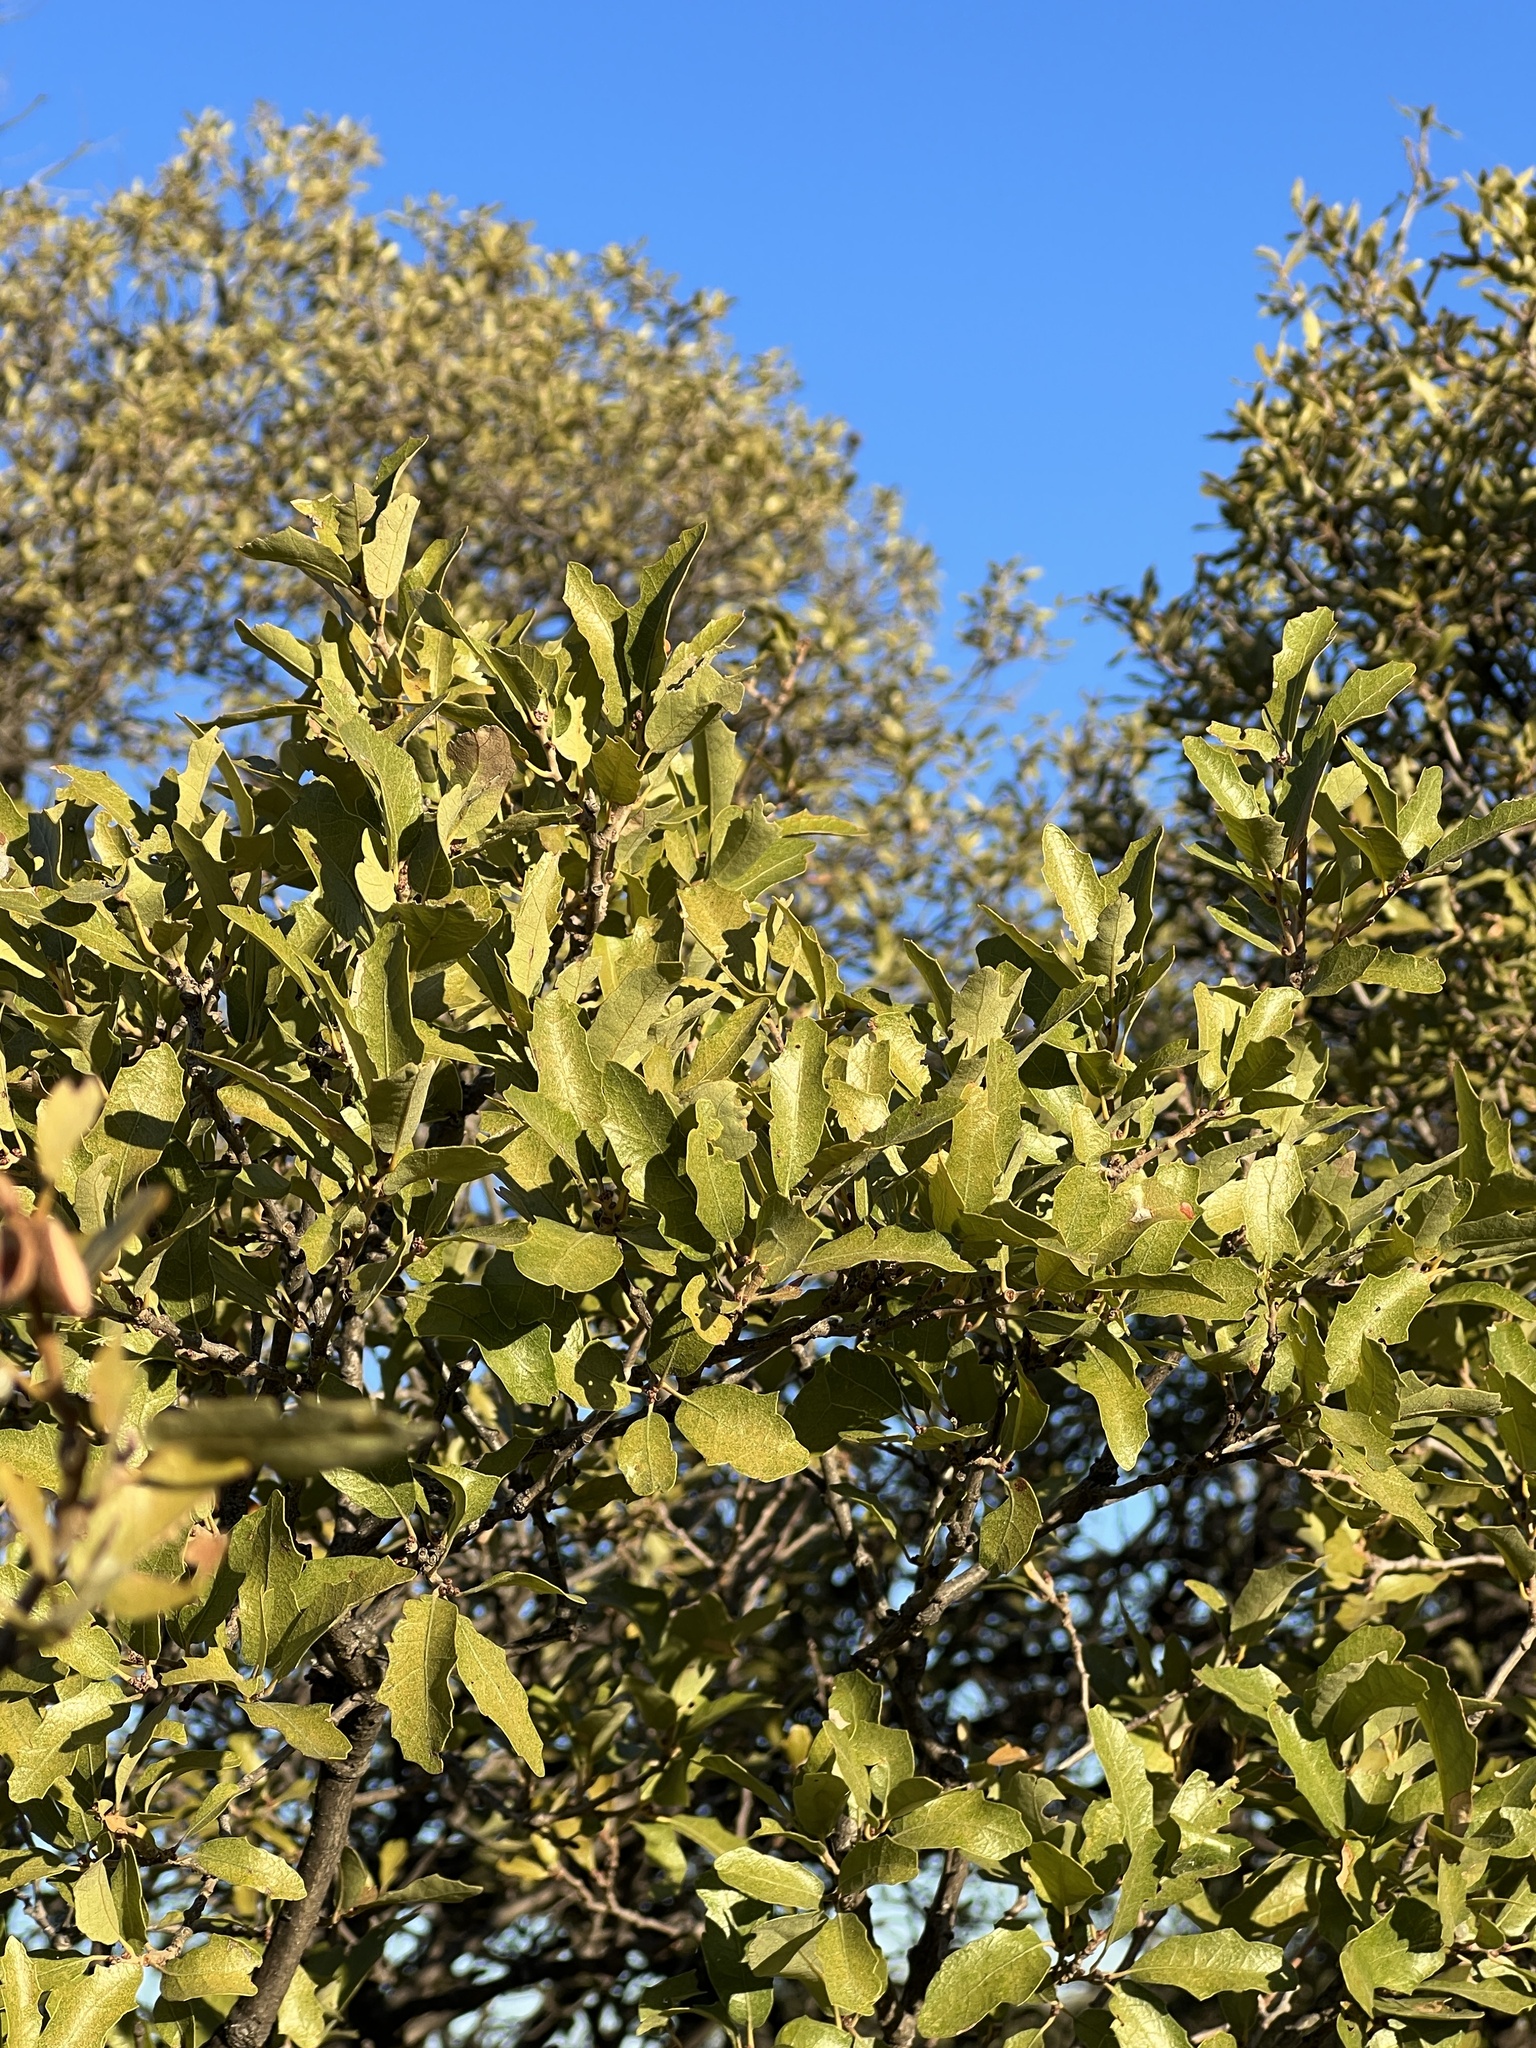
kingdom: Plantae
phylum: Tracheophyta
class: Magnoliopsida
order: Fagales
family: Fagaceae
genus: Quercus
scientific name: Quercus vaseyana
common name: Sandpaper oak
